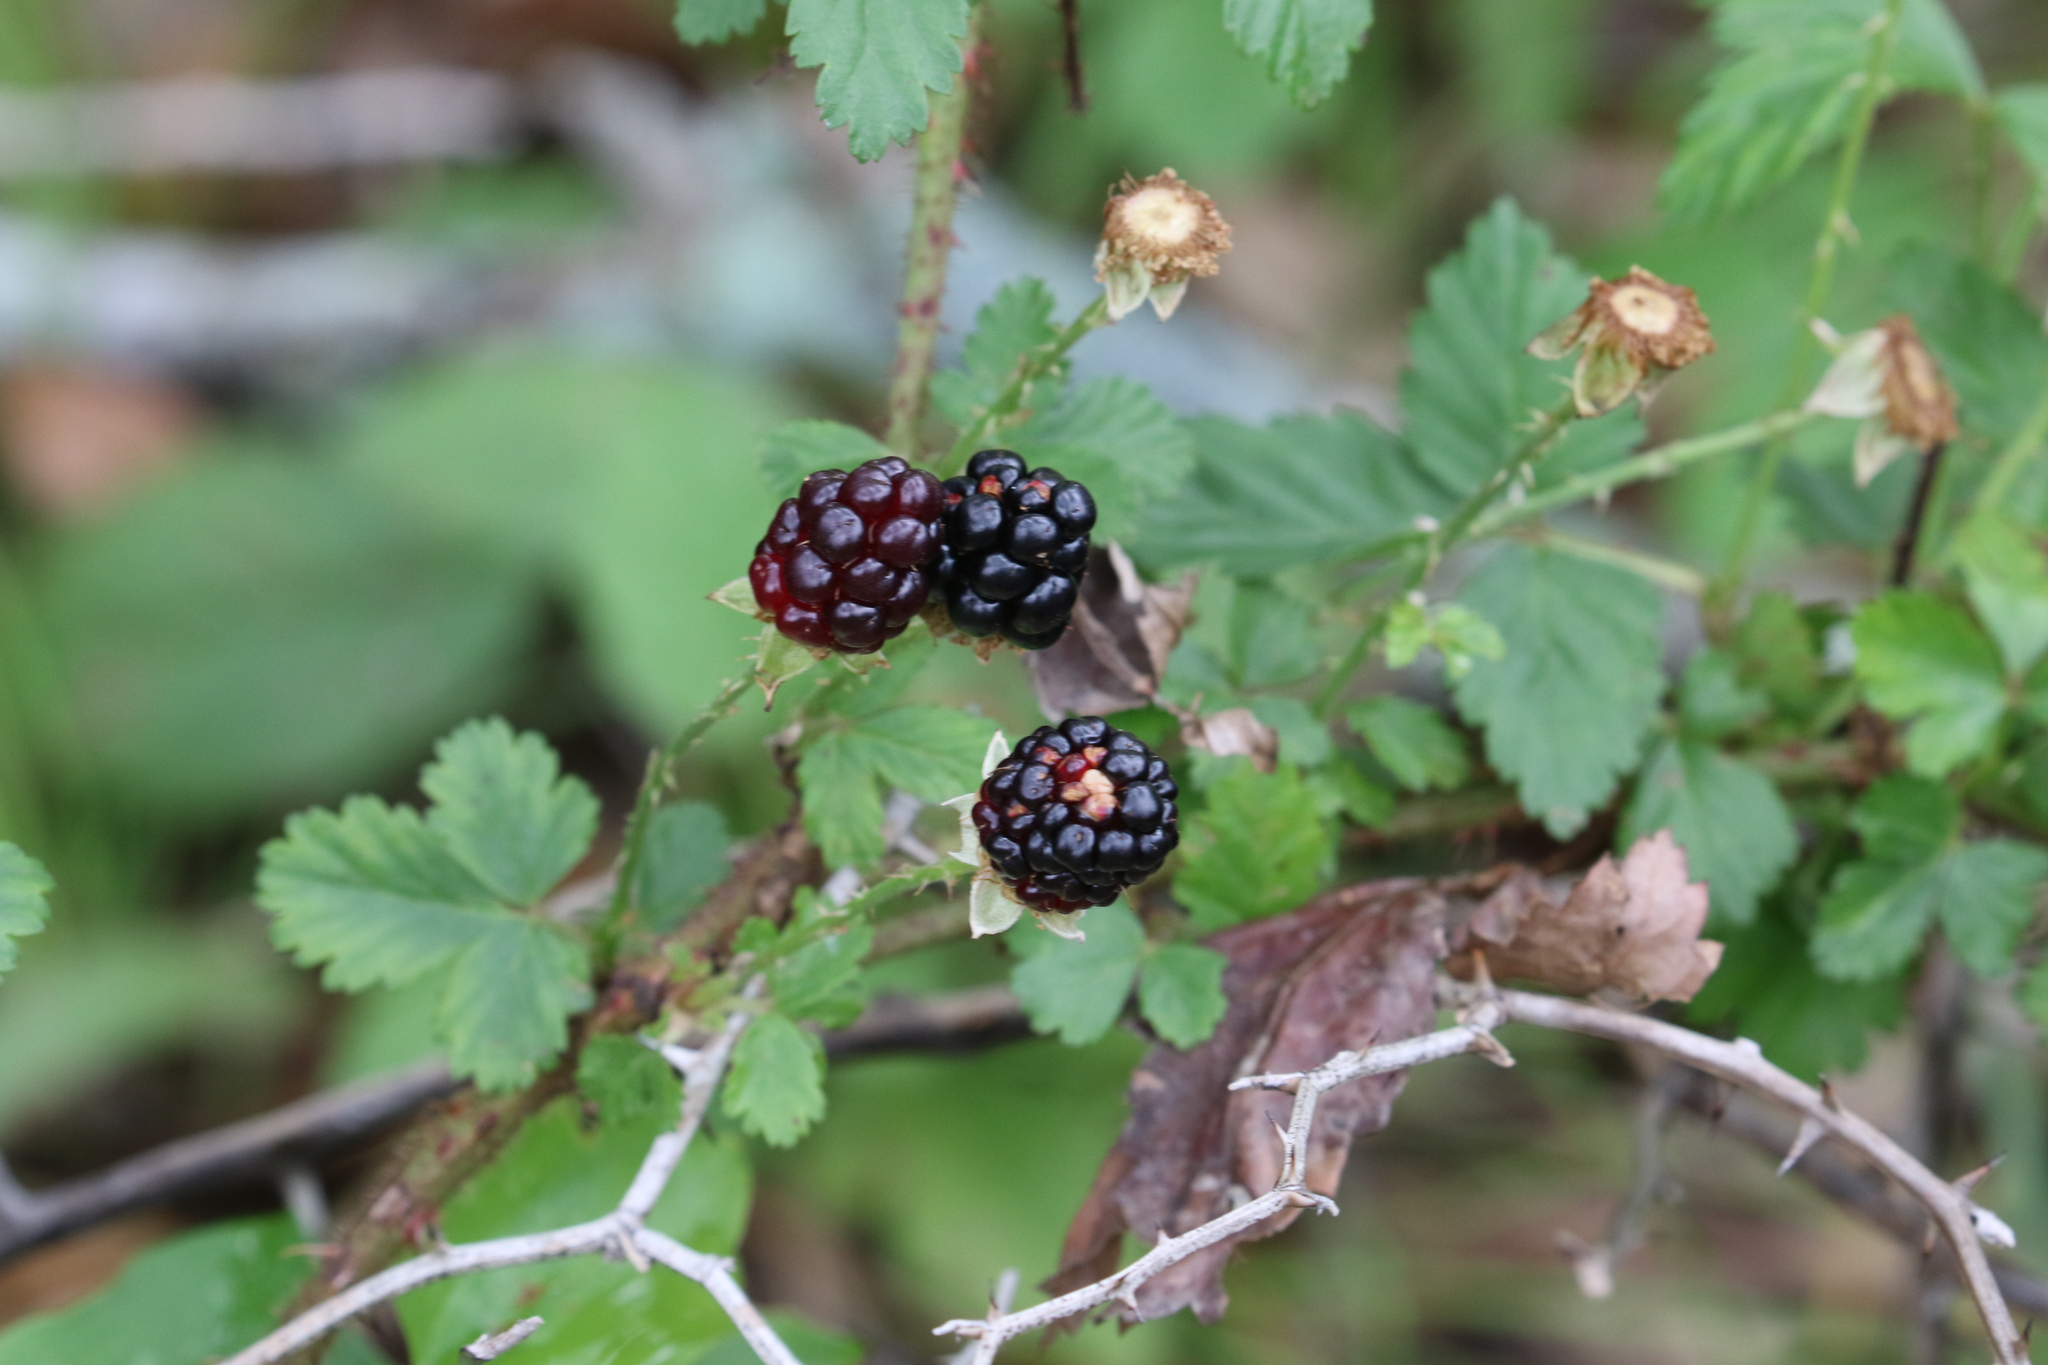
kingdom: Plantae
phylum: Tracheophyta
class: Magnoliopsida
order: Rosales
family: Rosaceae
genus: Rubus
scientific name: Rubus trivialis
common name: Southern dewberry
